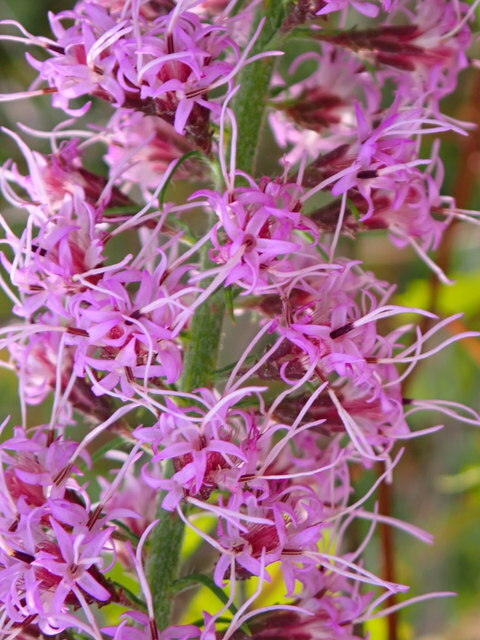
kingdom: Plantae
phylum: Tracheophyta
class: Magnoliopsida
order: Asterales
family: Asteraceae
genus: Liatris
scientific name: Liatris gracilis
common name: Slender gayfeather
